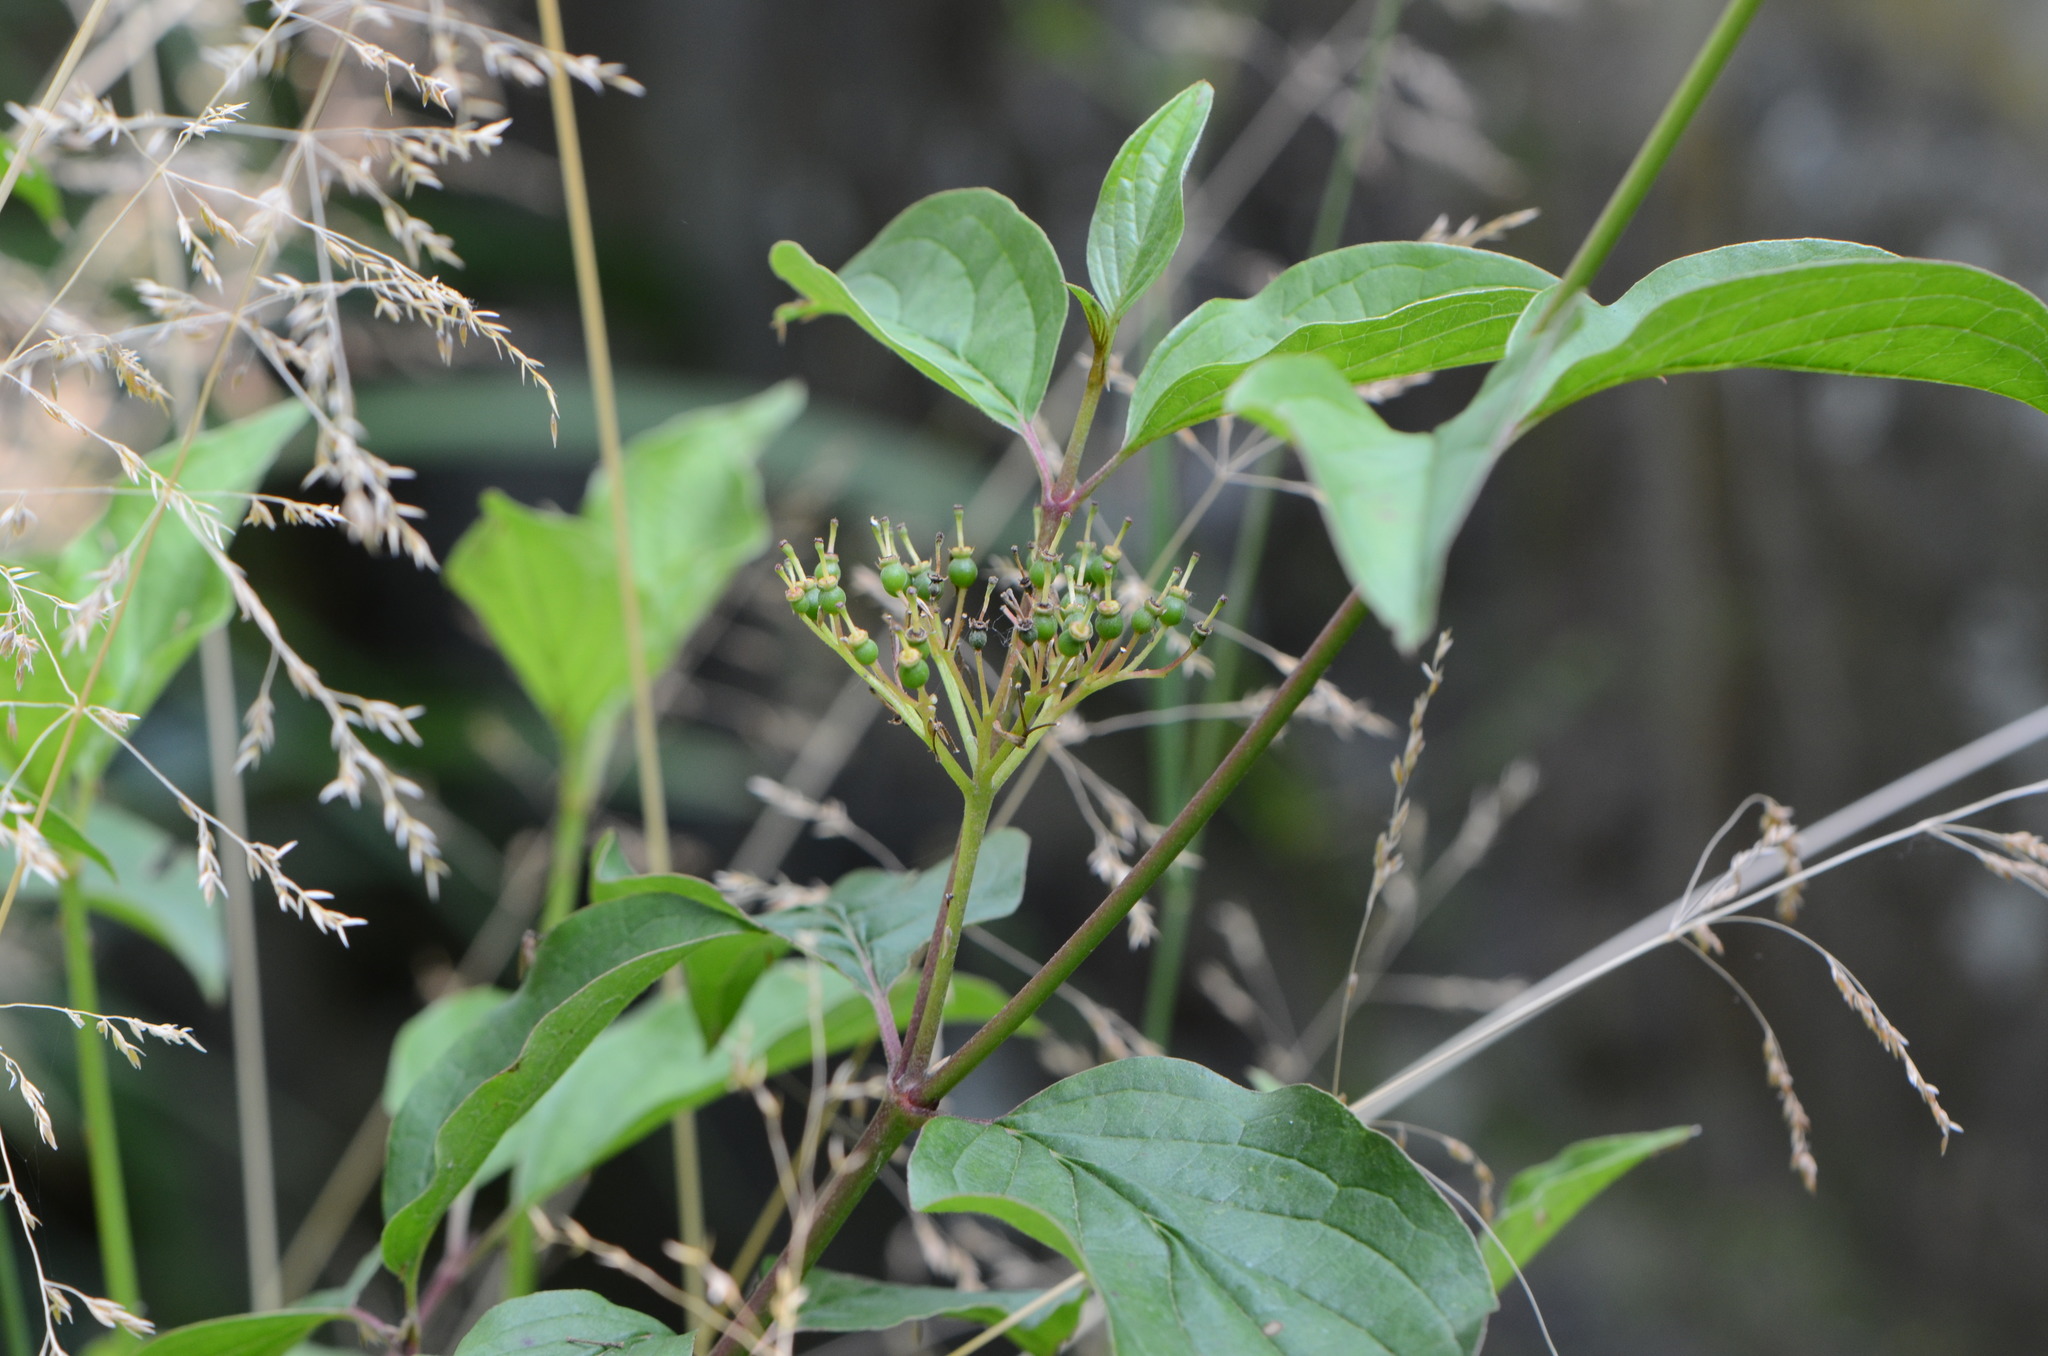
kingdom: Plantae
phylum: Tracheophyta
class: Magnoliopsida
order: Cornales
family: Cornaceae
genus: Cornus
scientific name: Cornus sanguinea
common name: Dogwood
